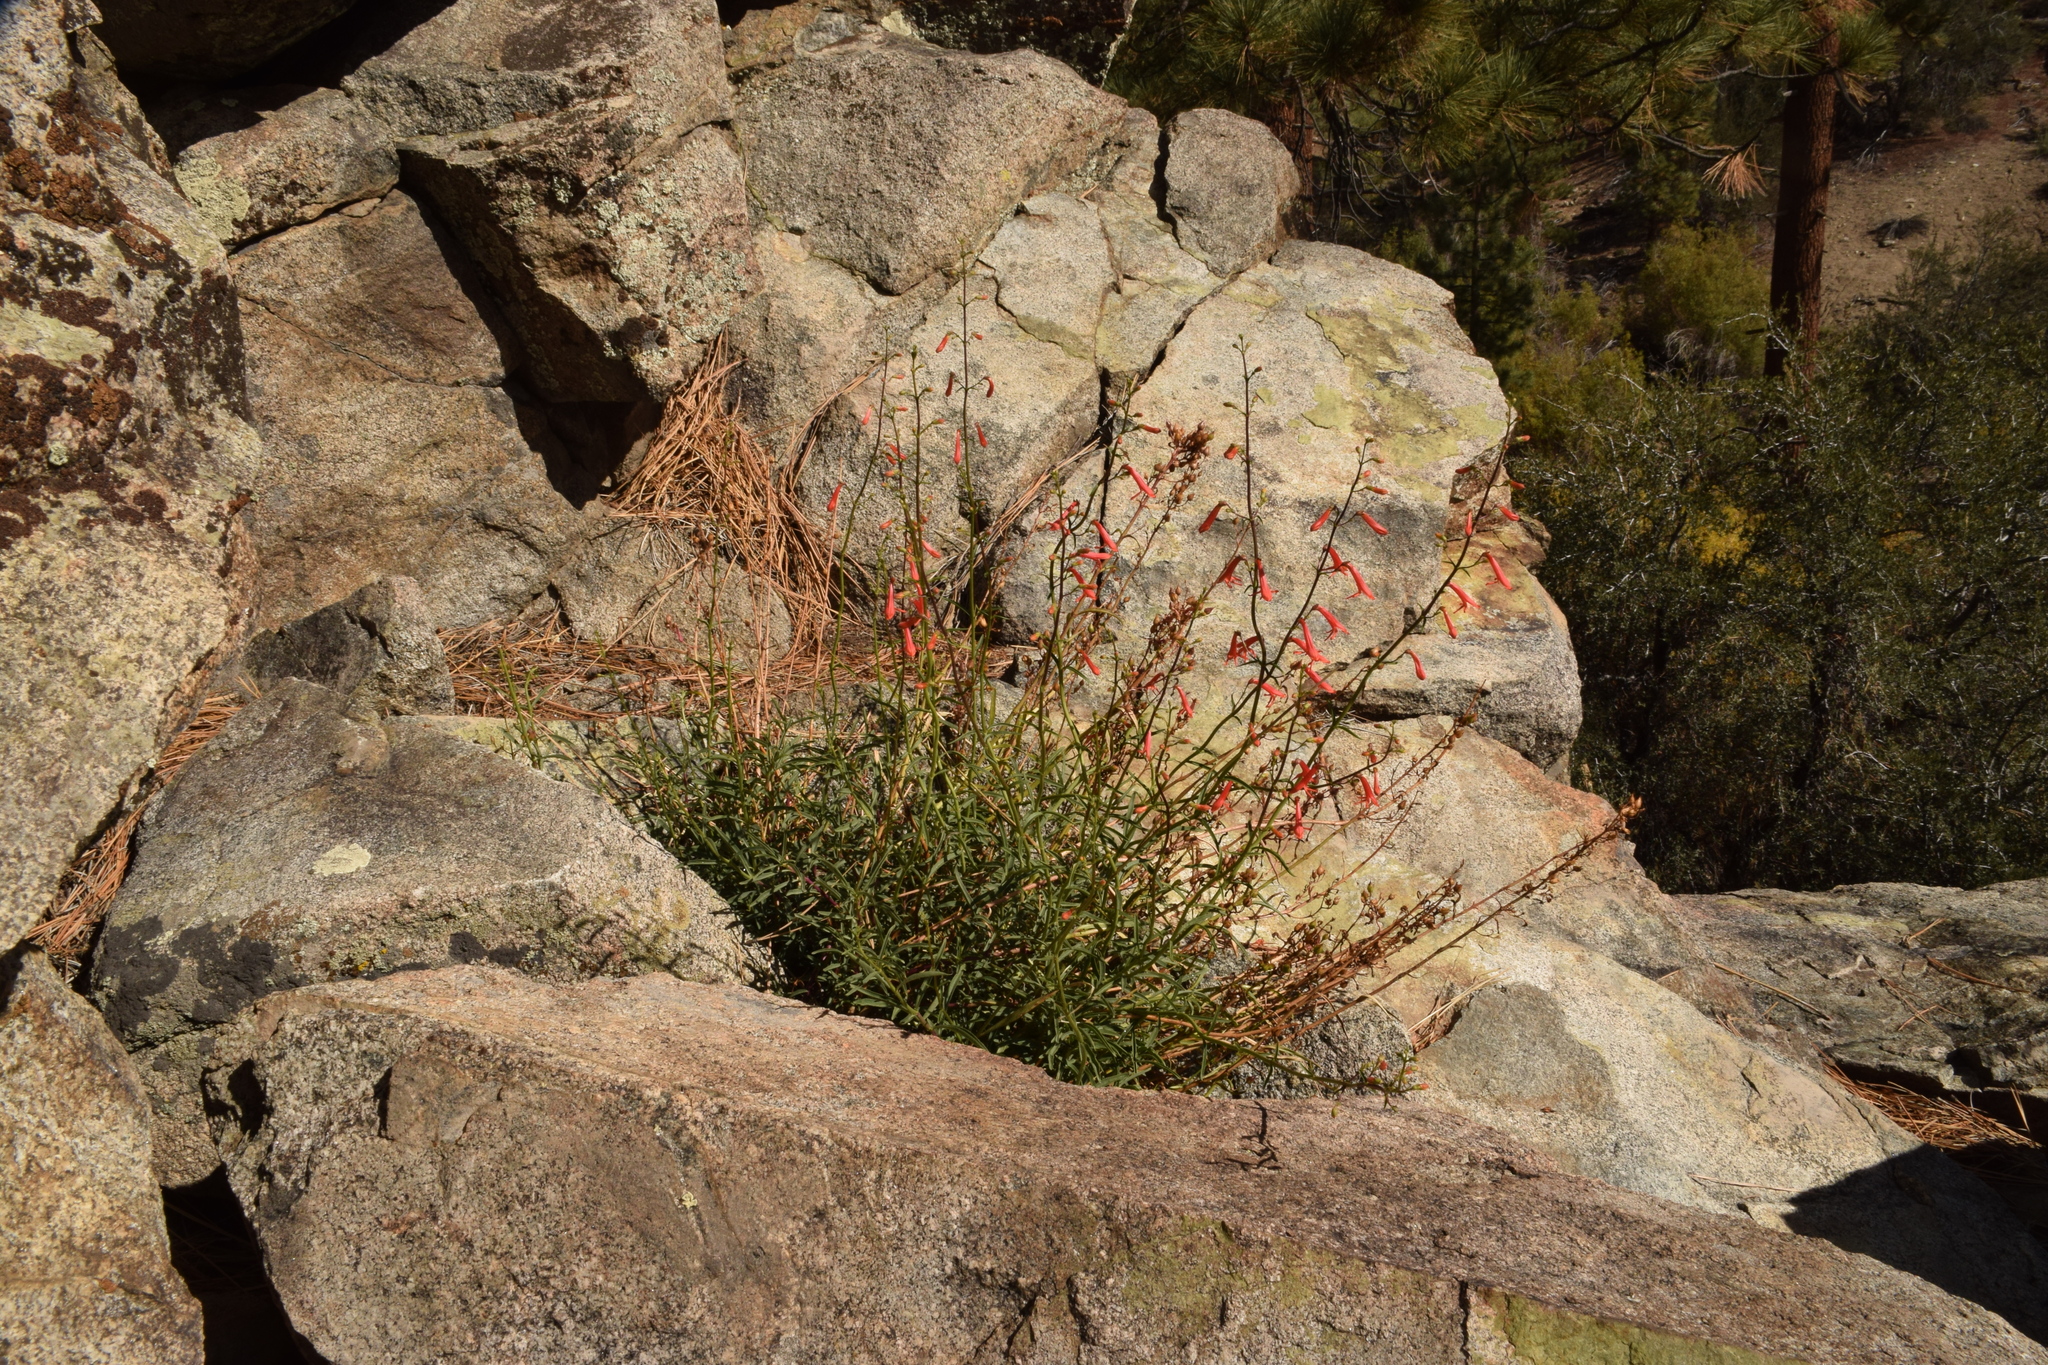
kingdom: Plantae
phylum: Tracheophyta
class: Magnoliopsida
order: Lamiales
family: Plantaginaceae
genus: Penstemon
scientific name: Penstemon rostriflorus
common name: Bridges's penstemon
